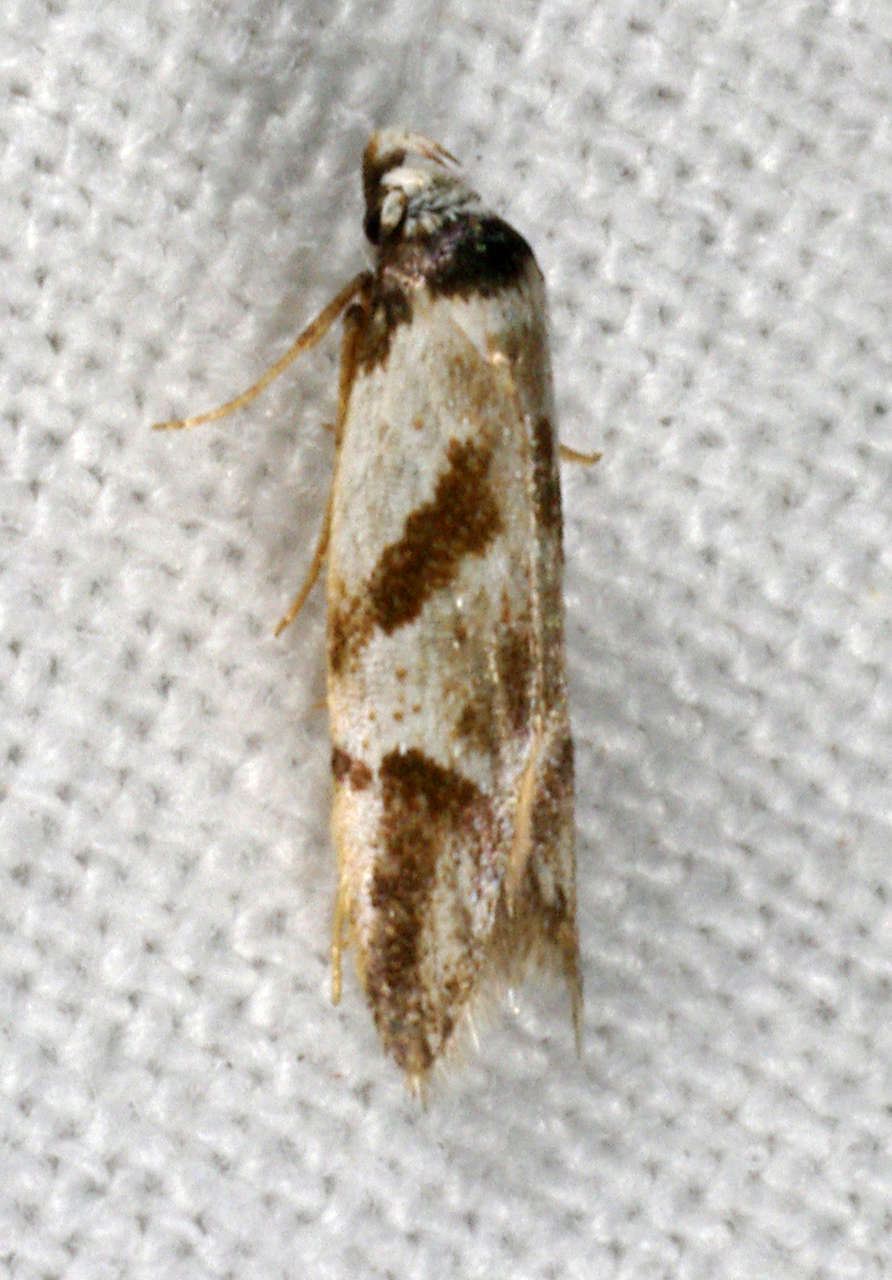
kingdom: Animalia
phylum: Arthropoda
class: Insecta
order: Lepidoptera
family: Oecophoridae
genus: Oxythecta
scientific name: Oxythecta lygrosema
